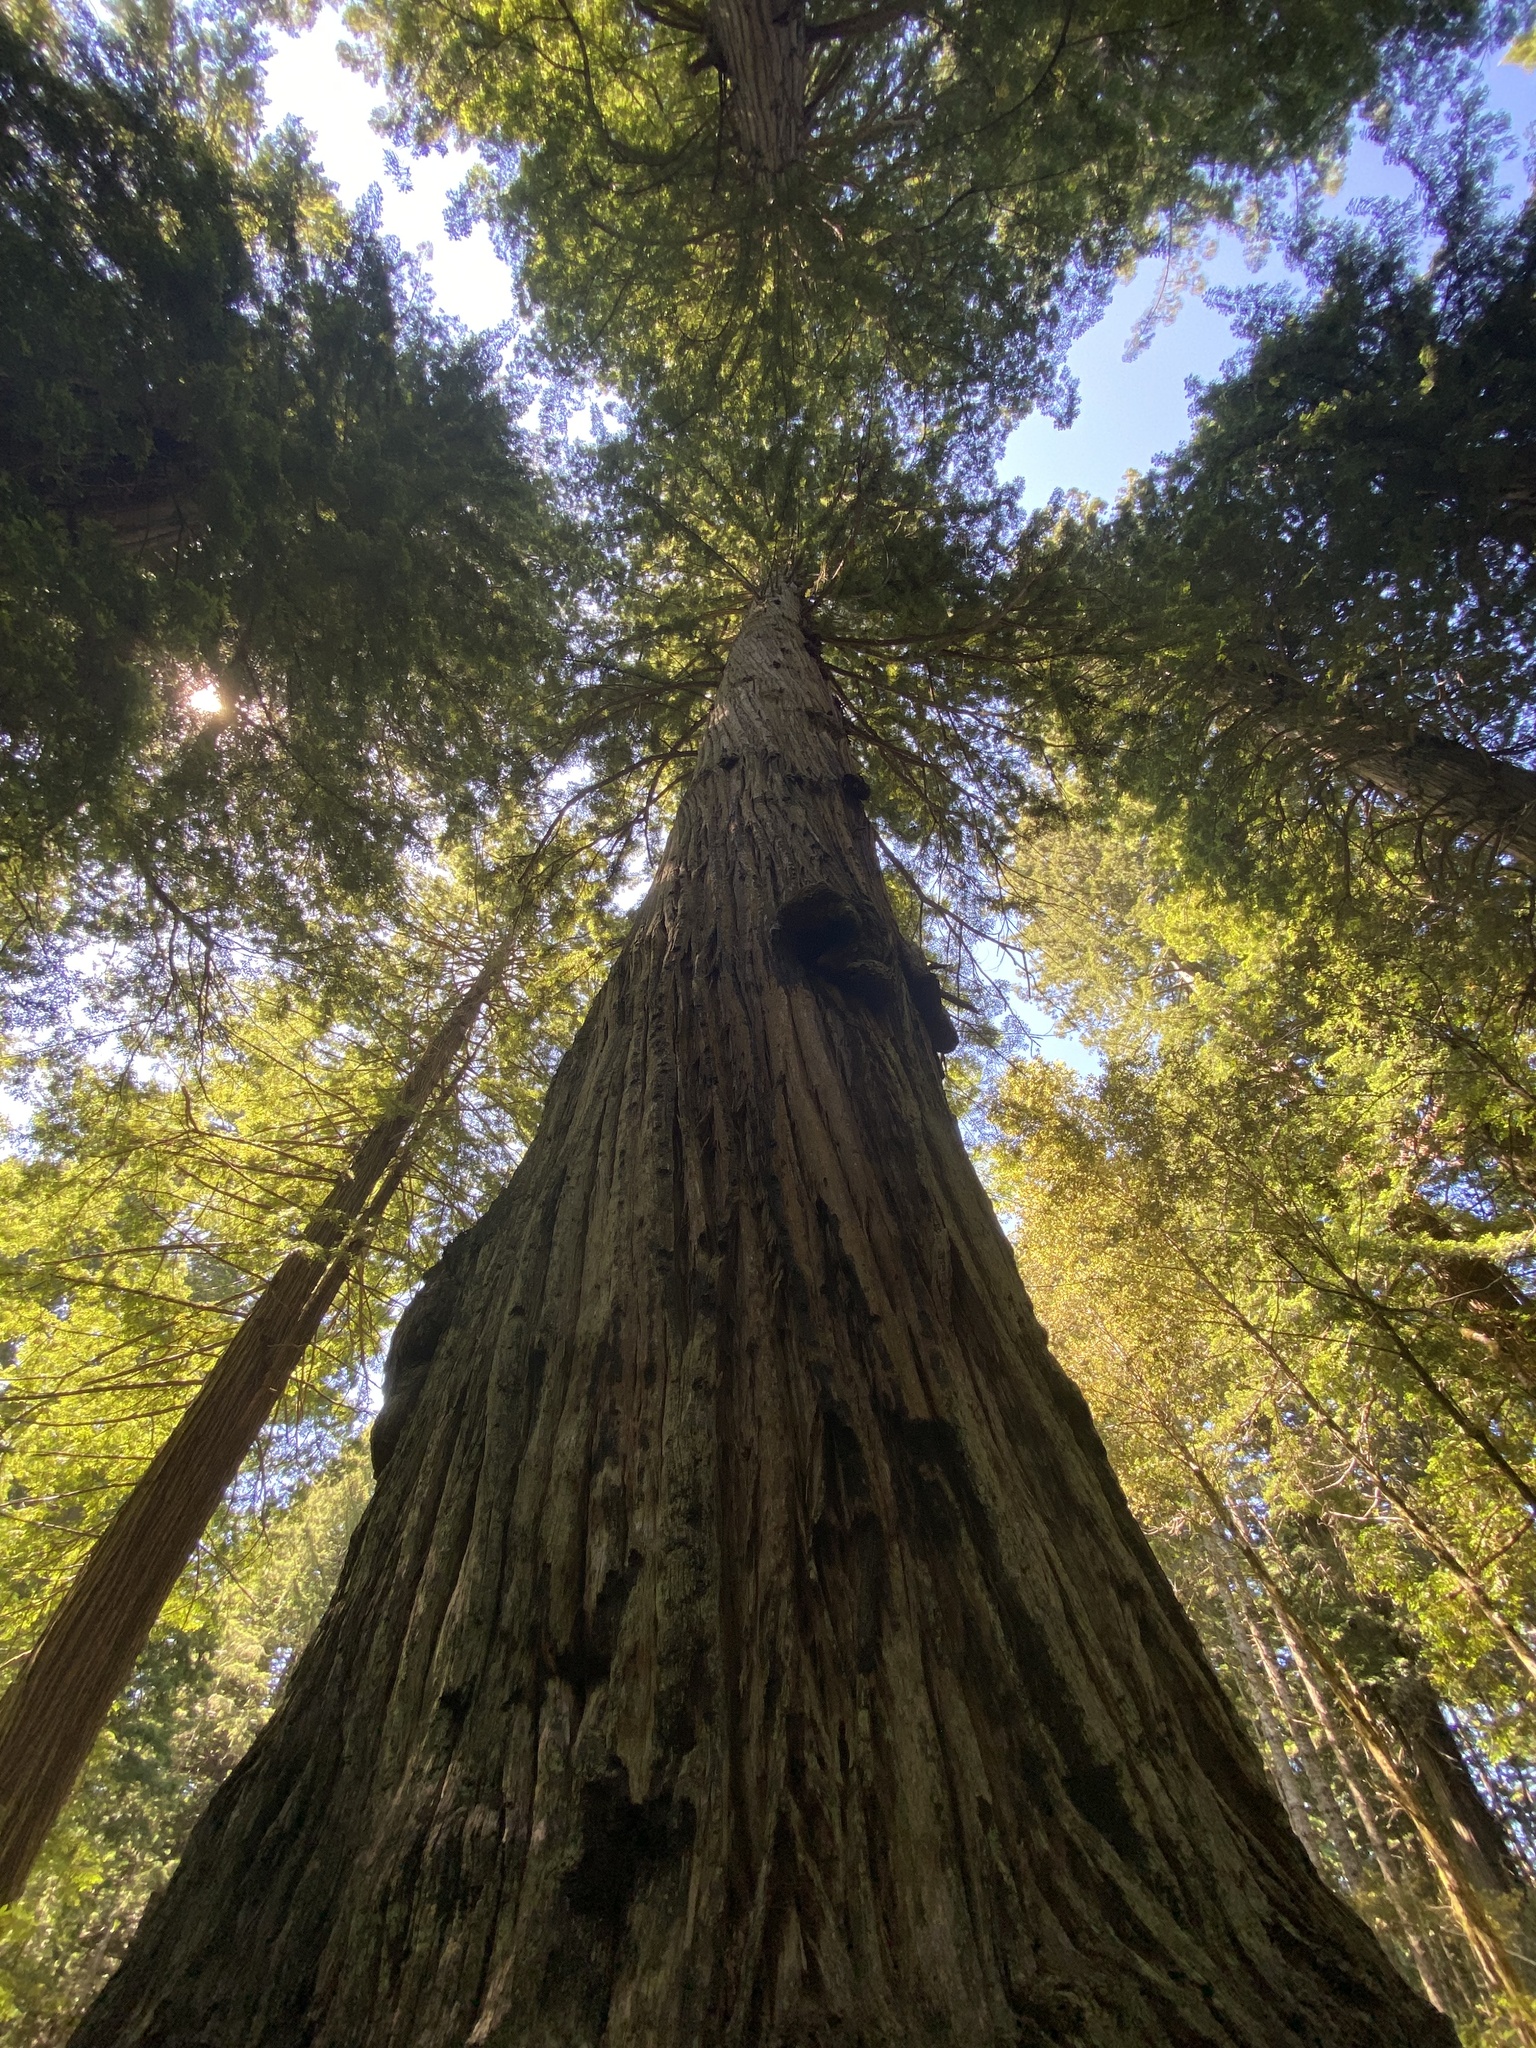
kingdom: Plantae
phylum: Tracheophyta
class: Pinopsida
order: Pinales
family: Cupressaceae
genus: Sequoia
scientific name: Sequoia sempervirens
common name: Coast redwood
